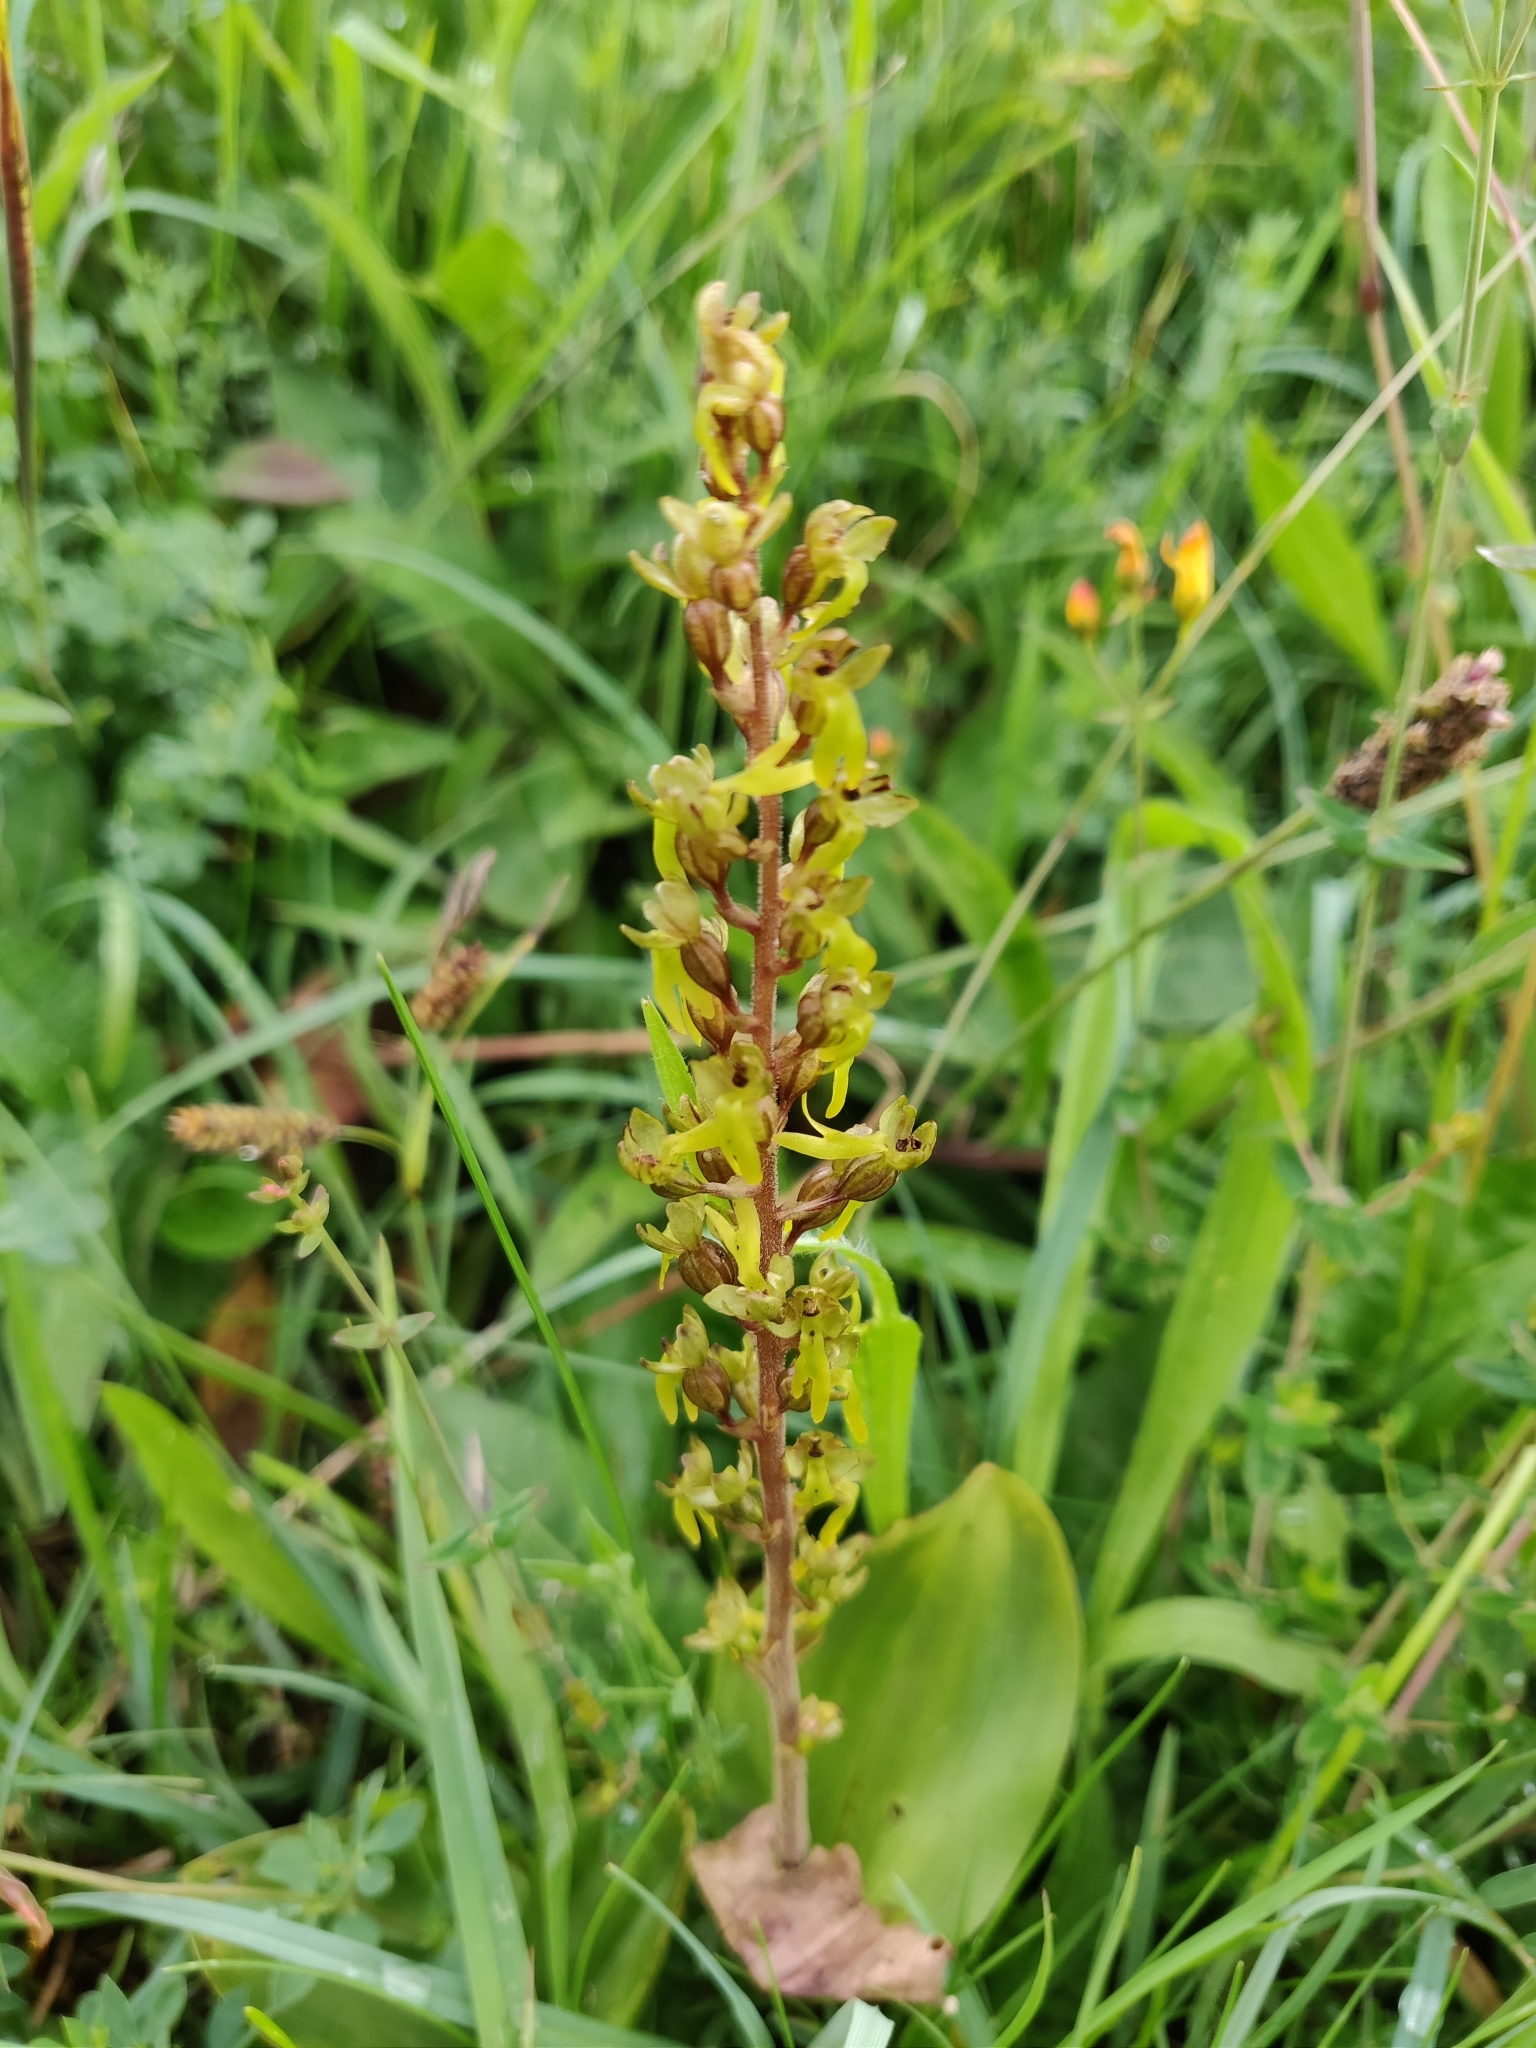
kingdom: Plantae
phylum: Tracheophyta
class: Liliopsida
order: Asparagales
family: Orchidaceae
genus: Neottia
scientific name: Neottia ovata
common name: Common twayblade
